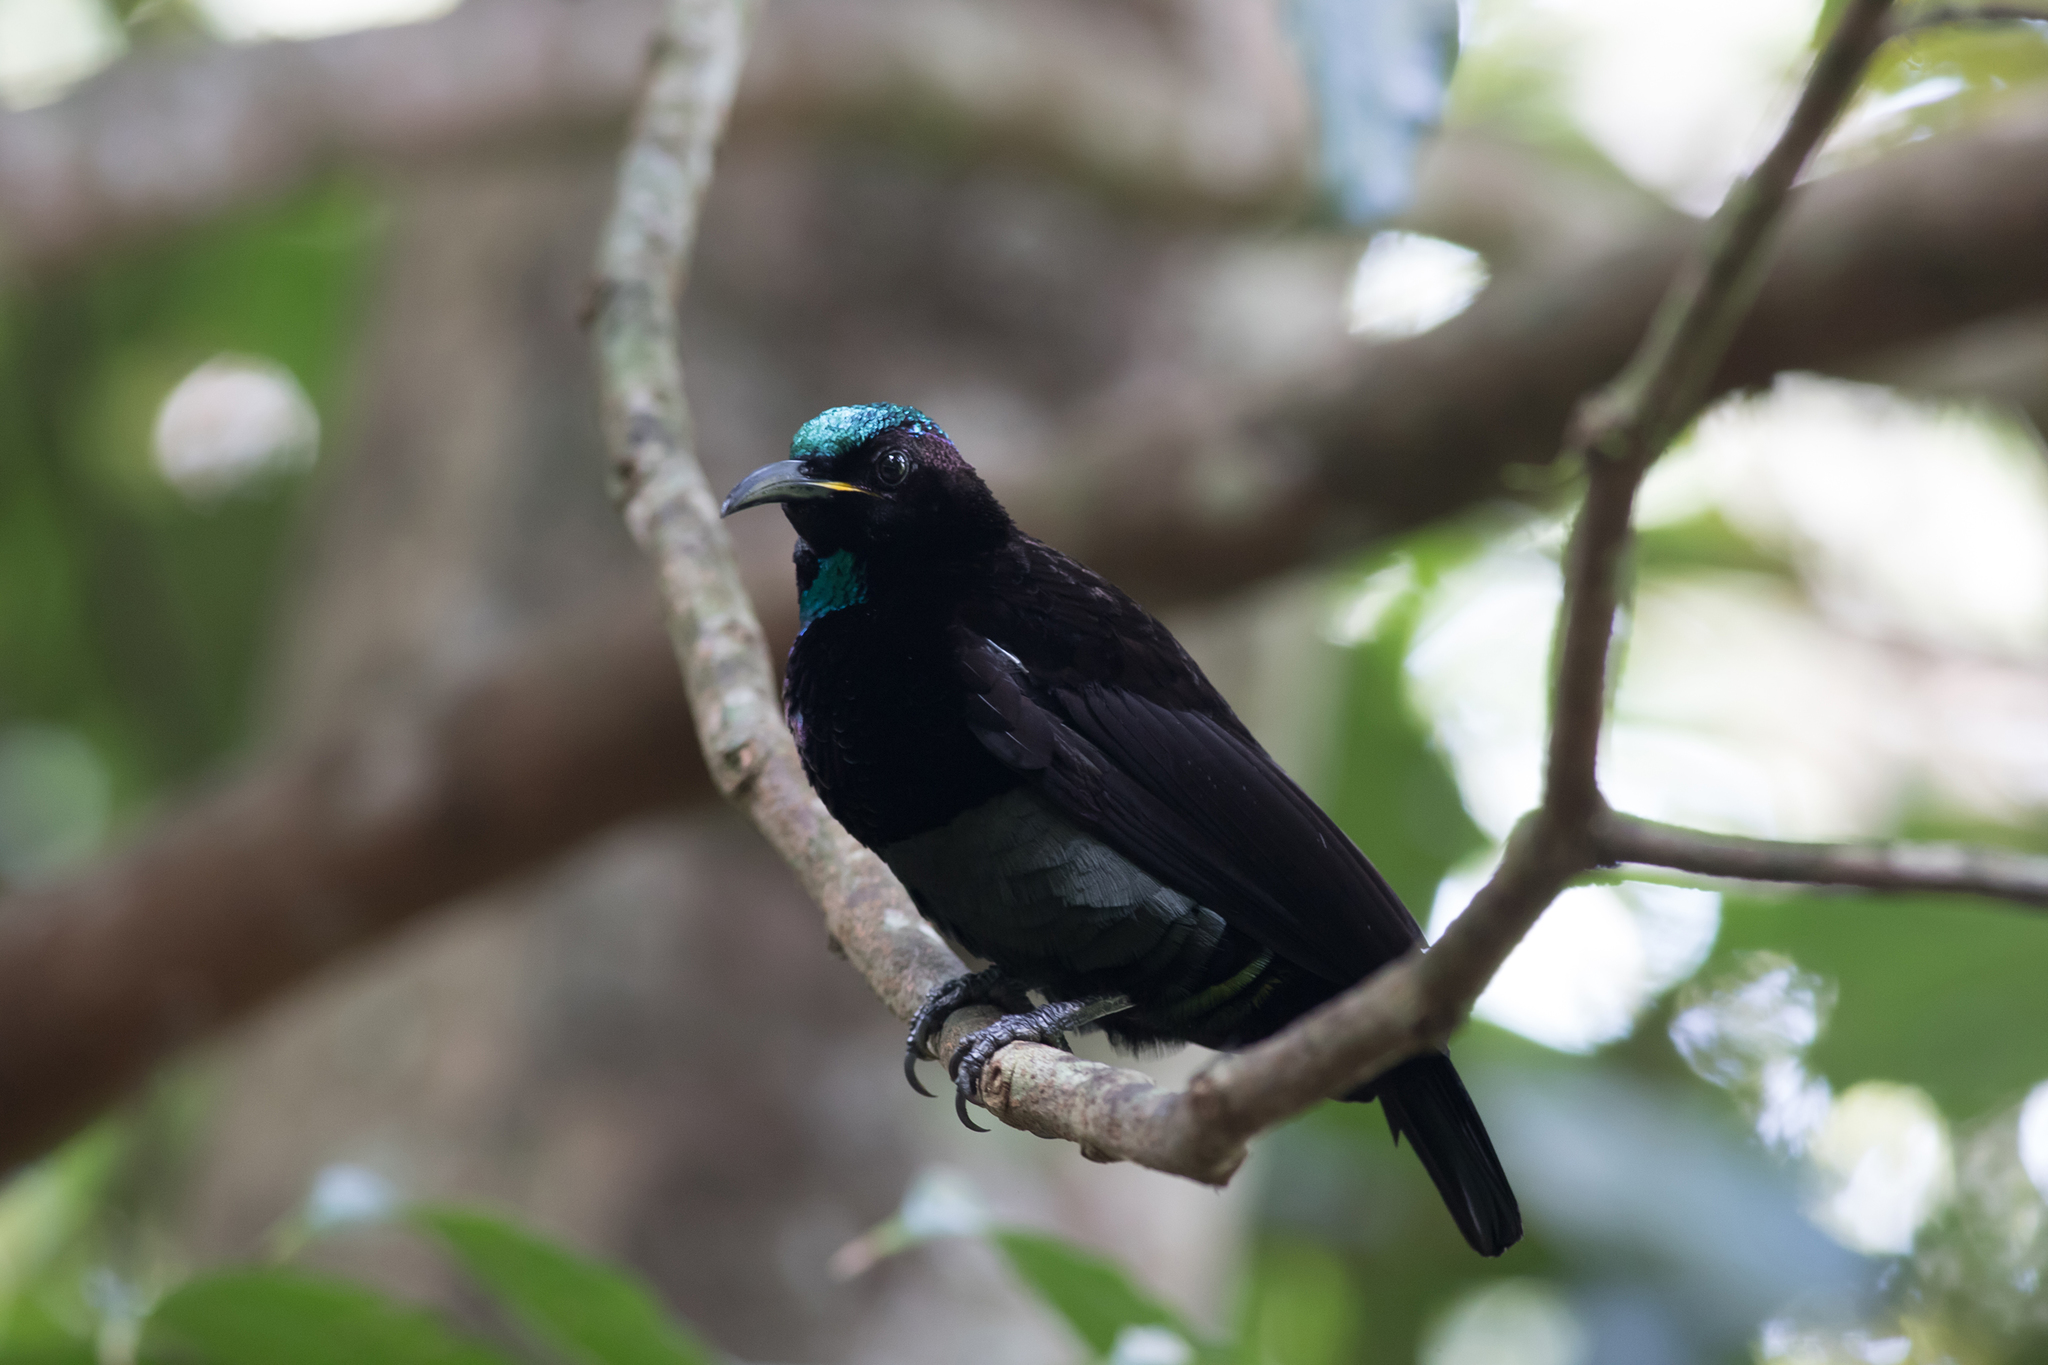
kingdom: Animalia
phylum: Chordata
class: Aves
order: Passeriformes
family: Paradisaeidae
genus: Ptiloris
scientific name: Ptiloris victoriae
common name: Victoria's riflebird
